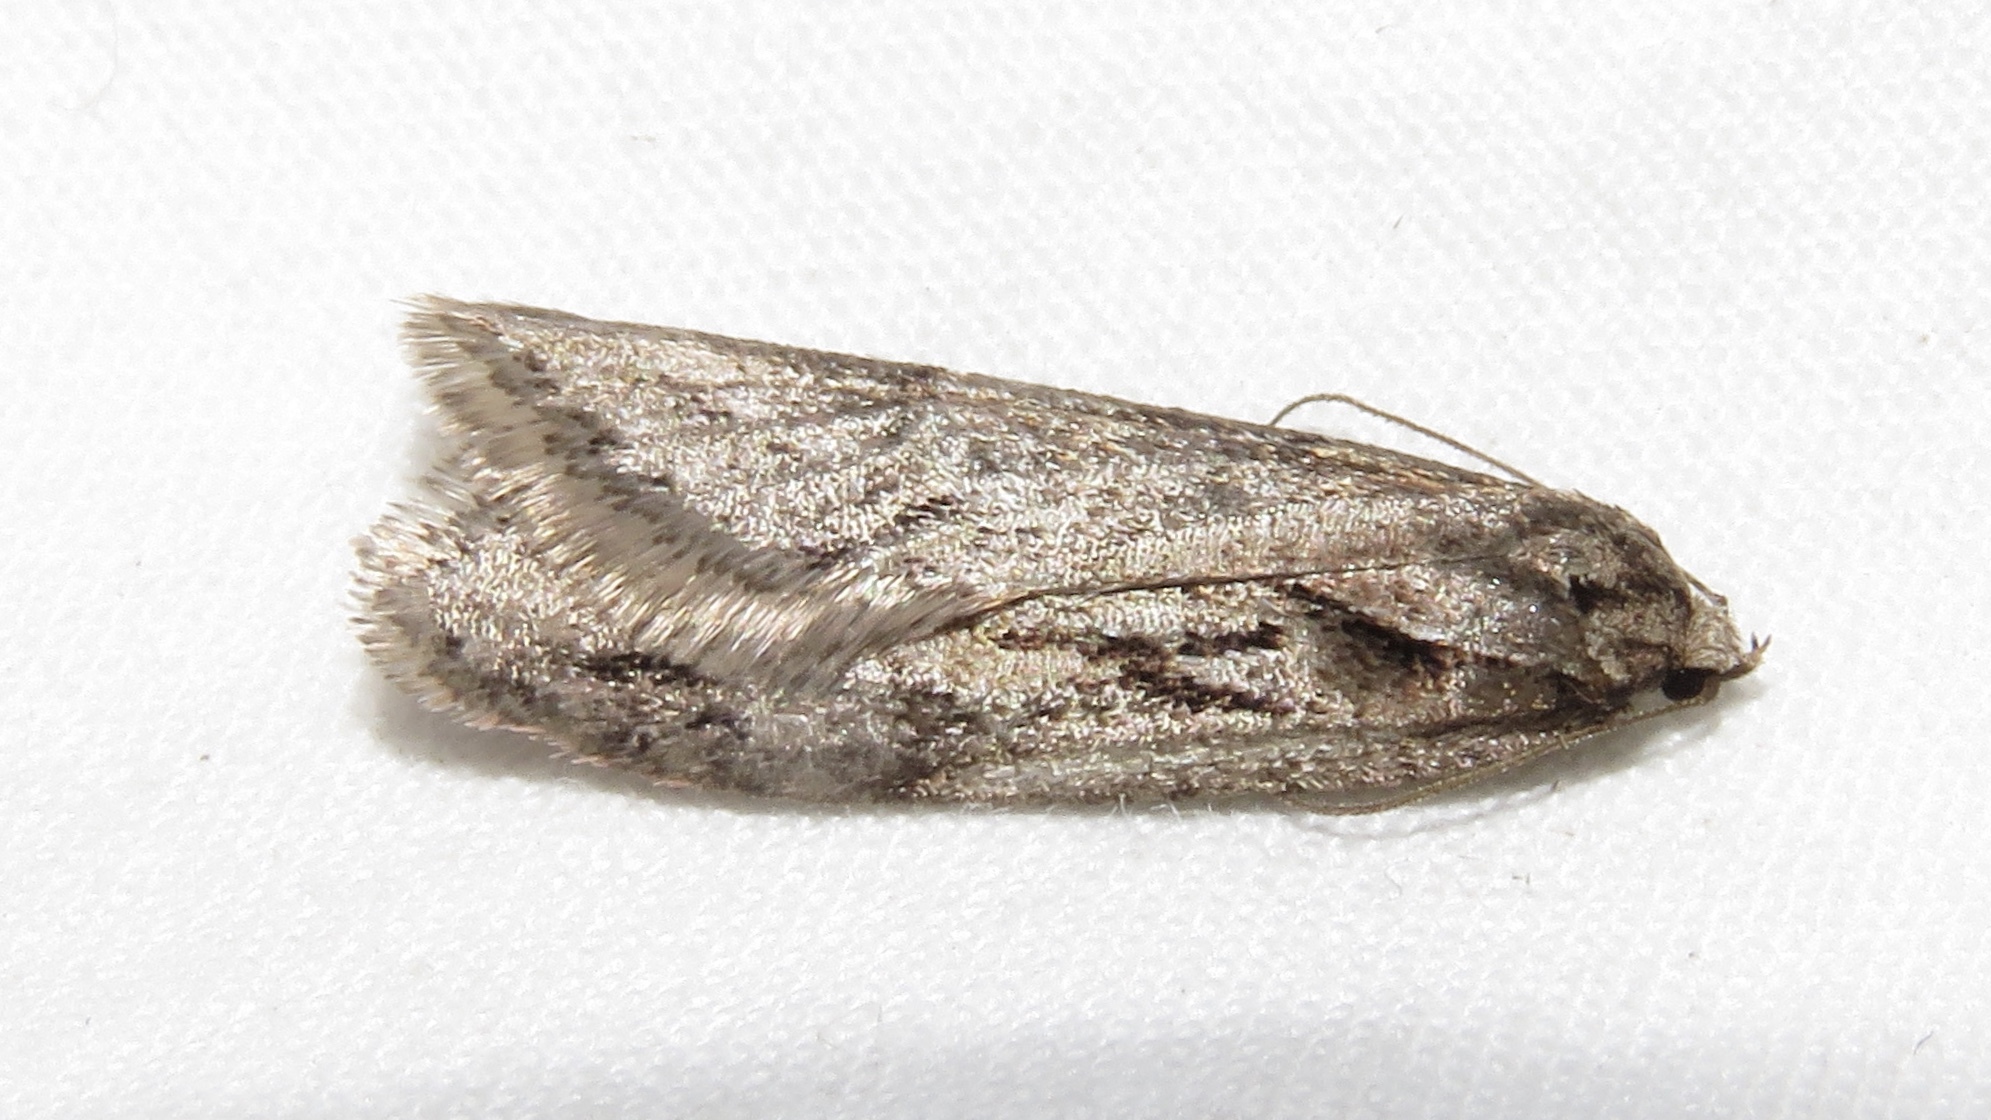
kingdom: Animalia
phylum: Arthropoda
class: Insecta
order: Lepidoptera
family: Depressariidae
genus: Semioscopis
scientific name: Semioscopis aurorella
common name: Aurora flatbody moth
